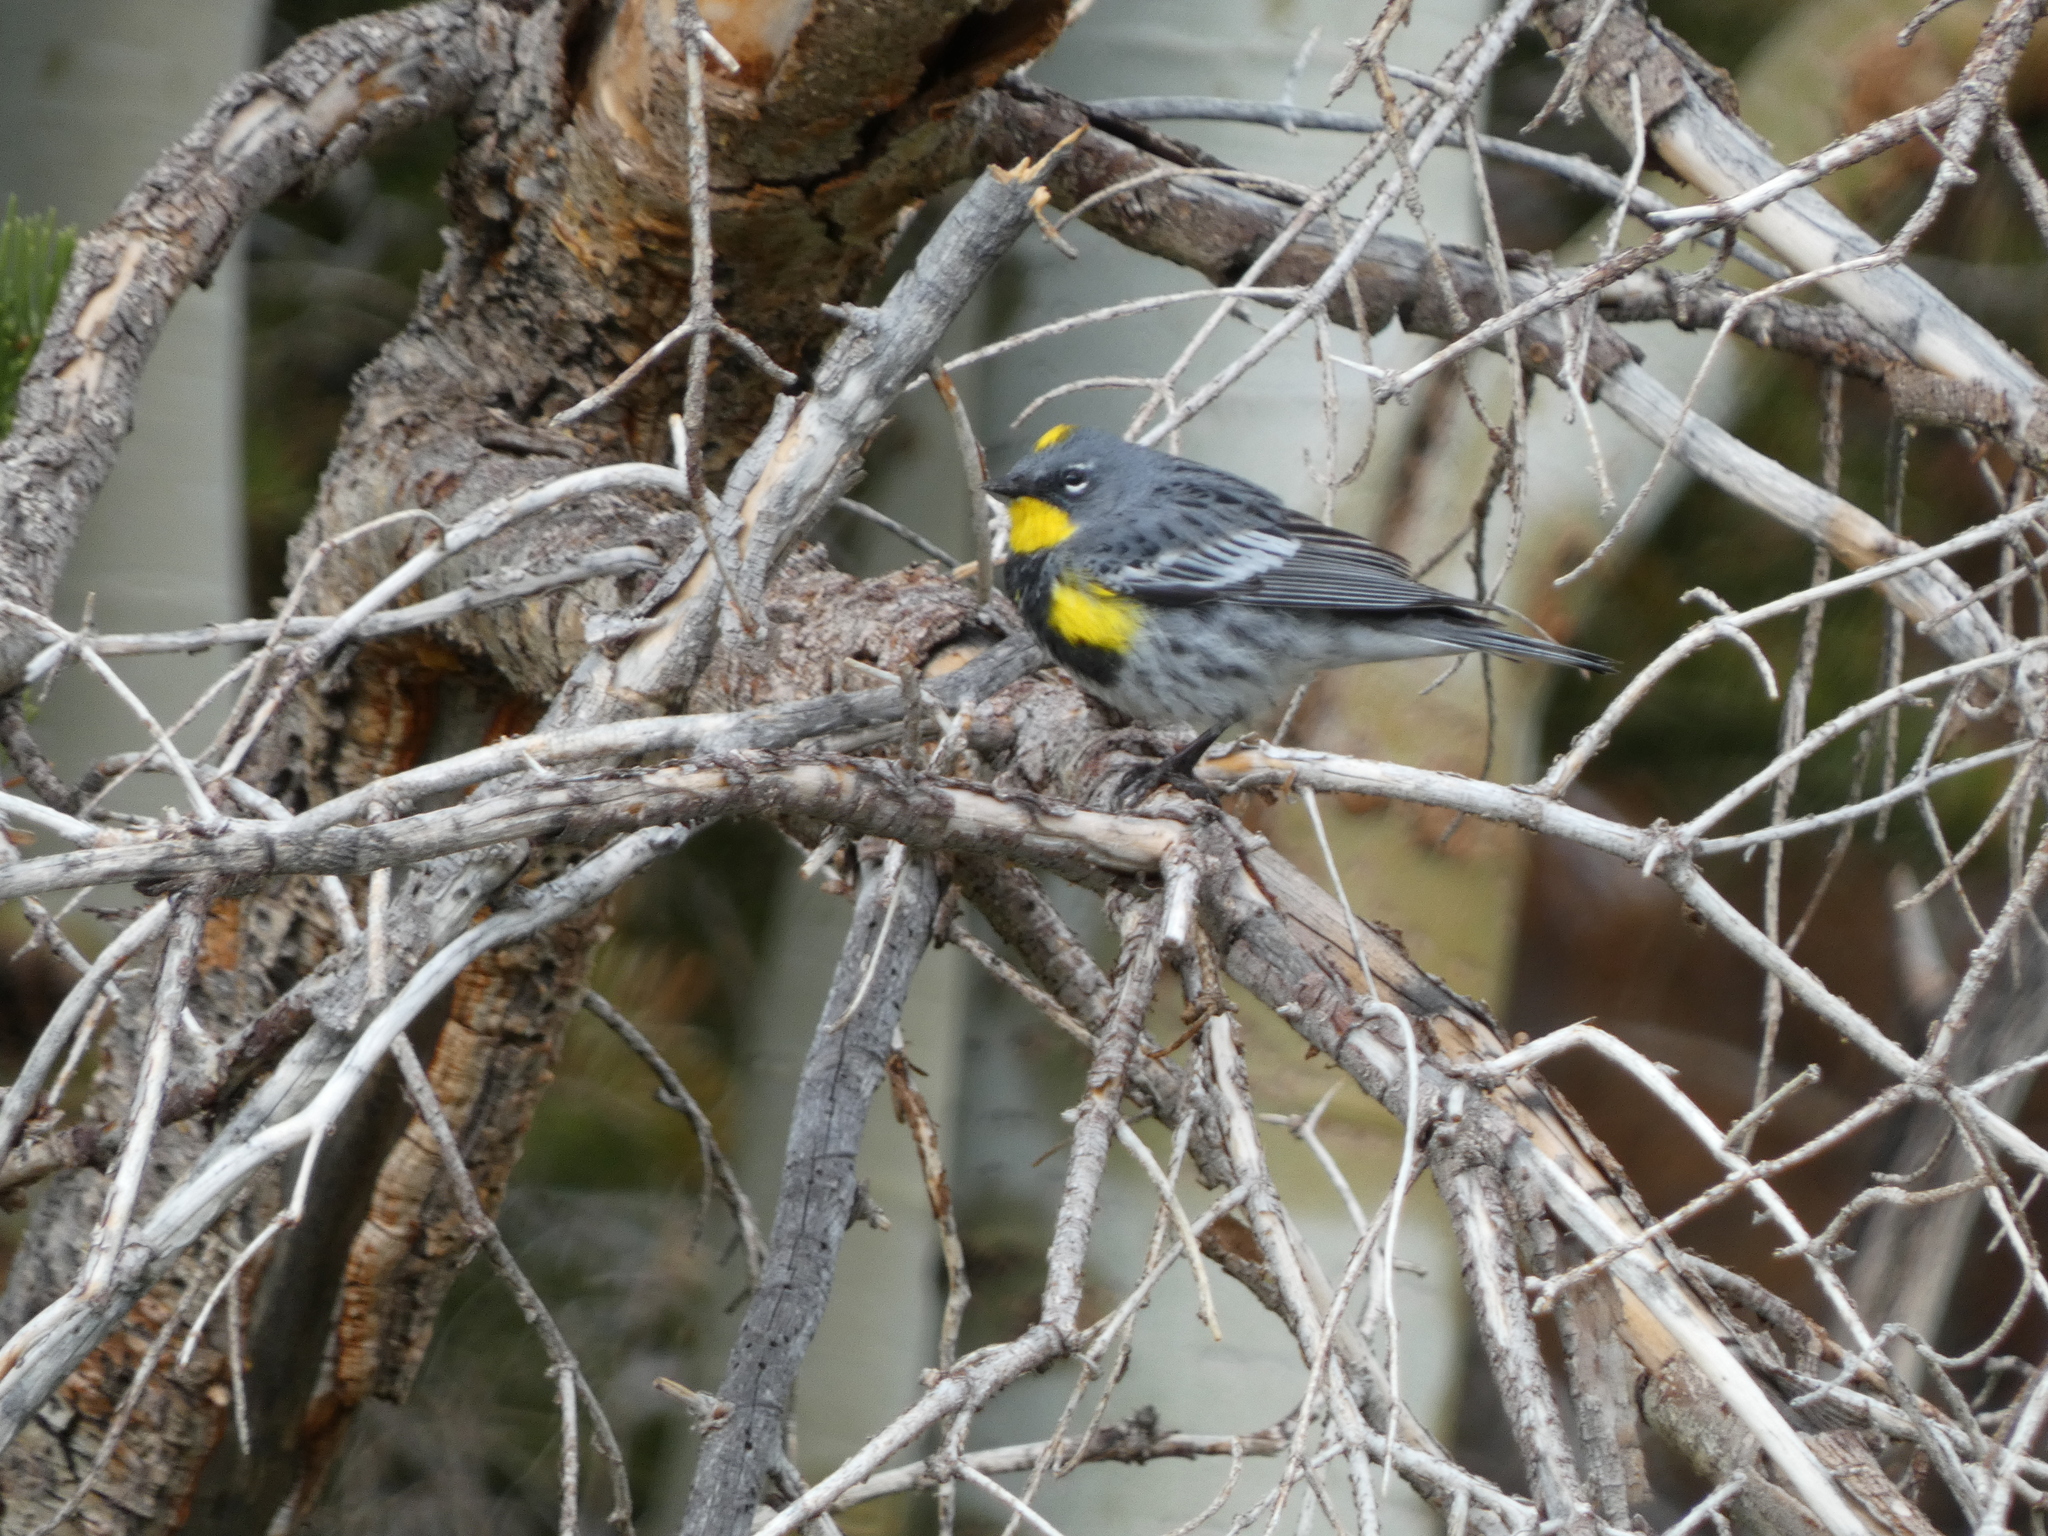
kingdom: Animalia
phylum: Chordata
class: Aves
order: Passeriformes
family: Parulidae
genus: Setophaga
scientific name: Setophaga auduboni
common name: Audubon's warbler
